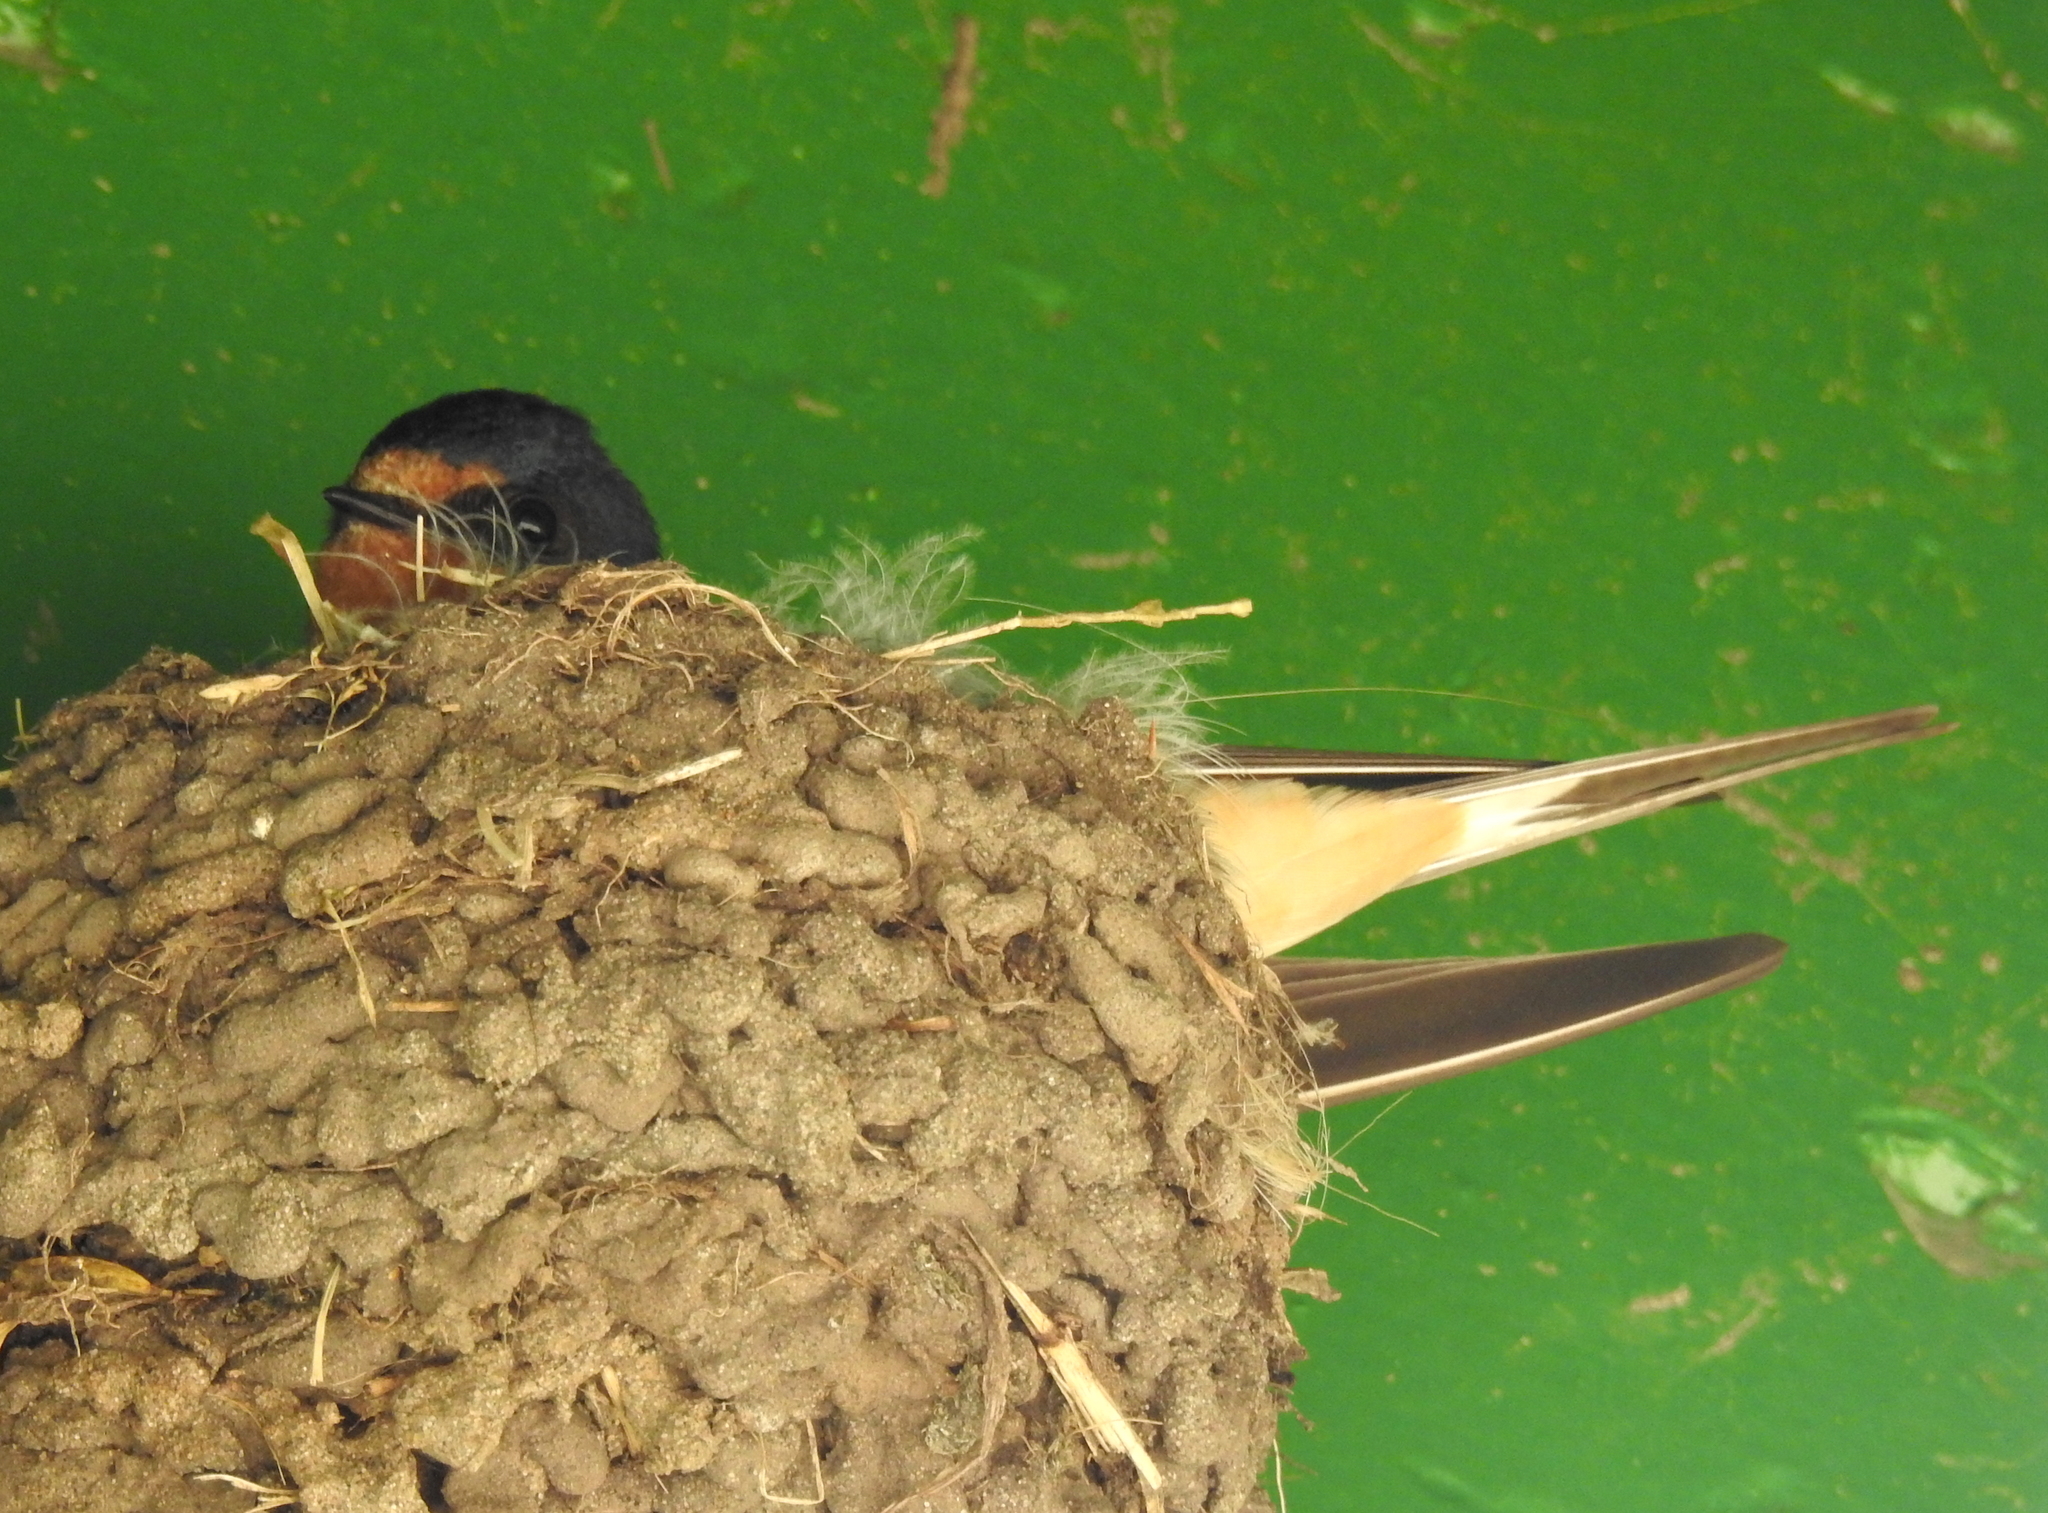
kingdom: Animalia
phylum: Chordata
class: Aves
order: Passeriformes
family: Hirundinidae
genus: Hirundo
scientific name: Hirundo rustica
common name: Barn swallow
